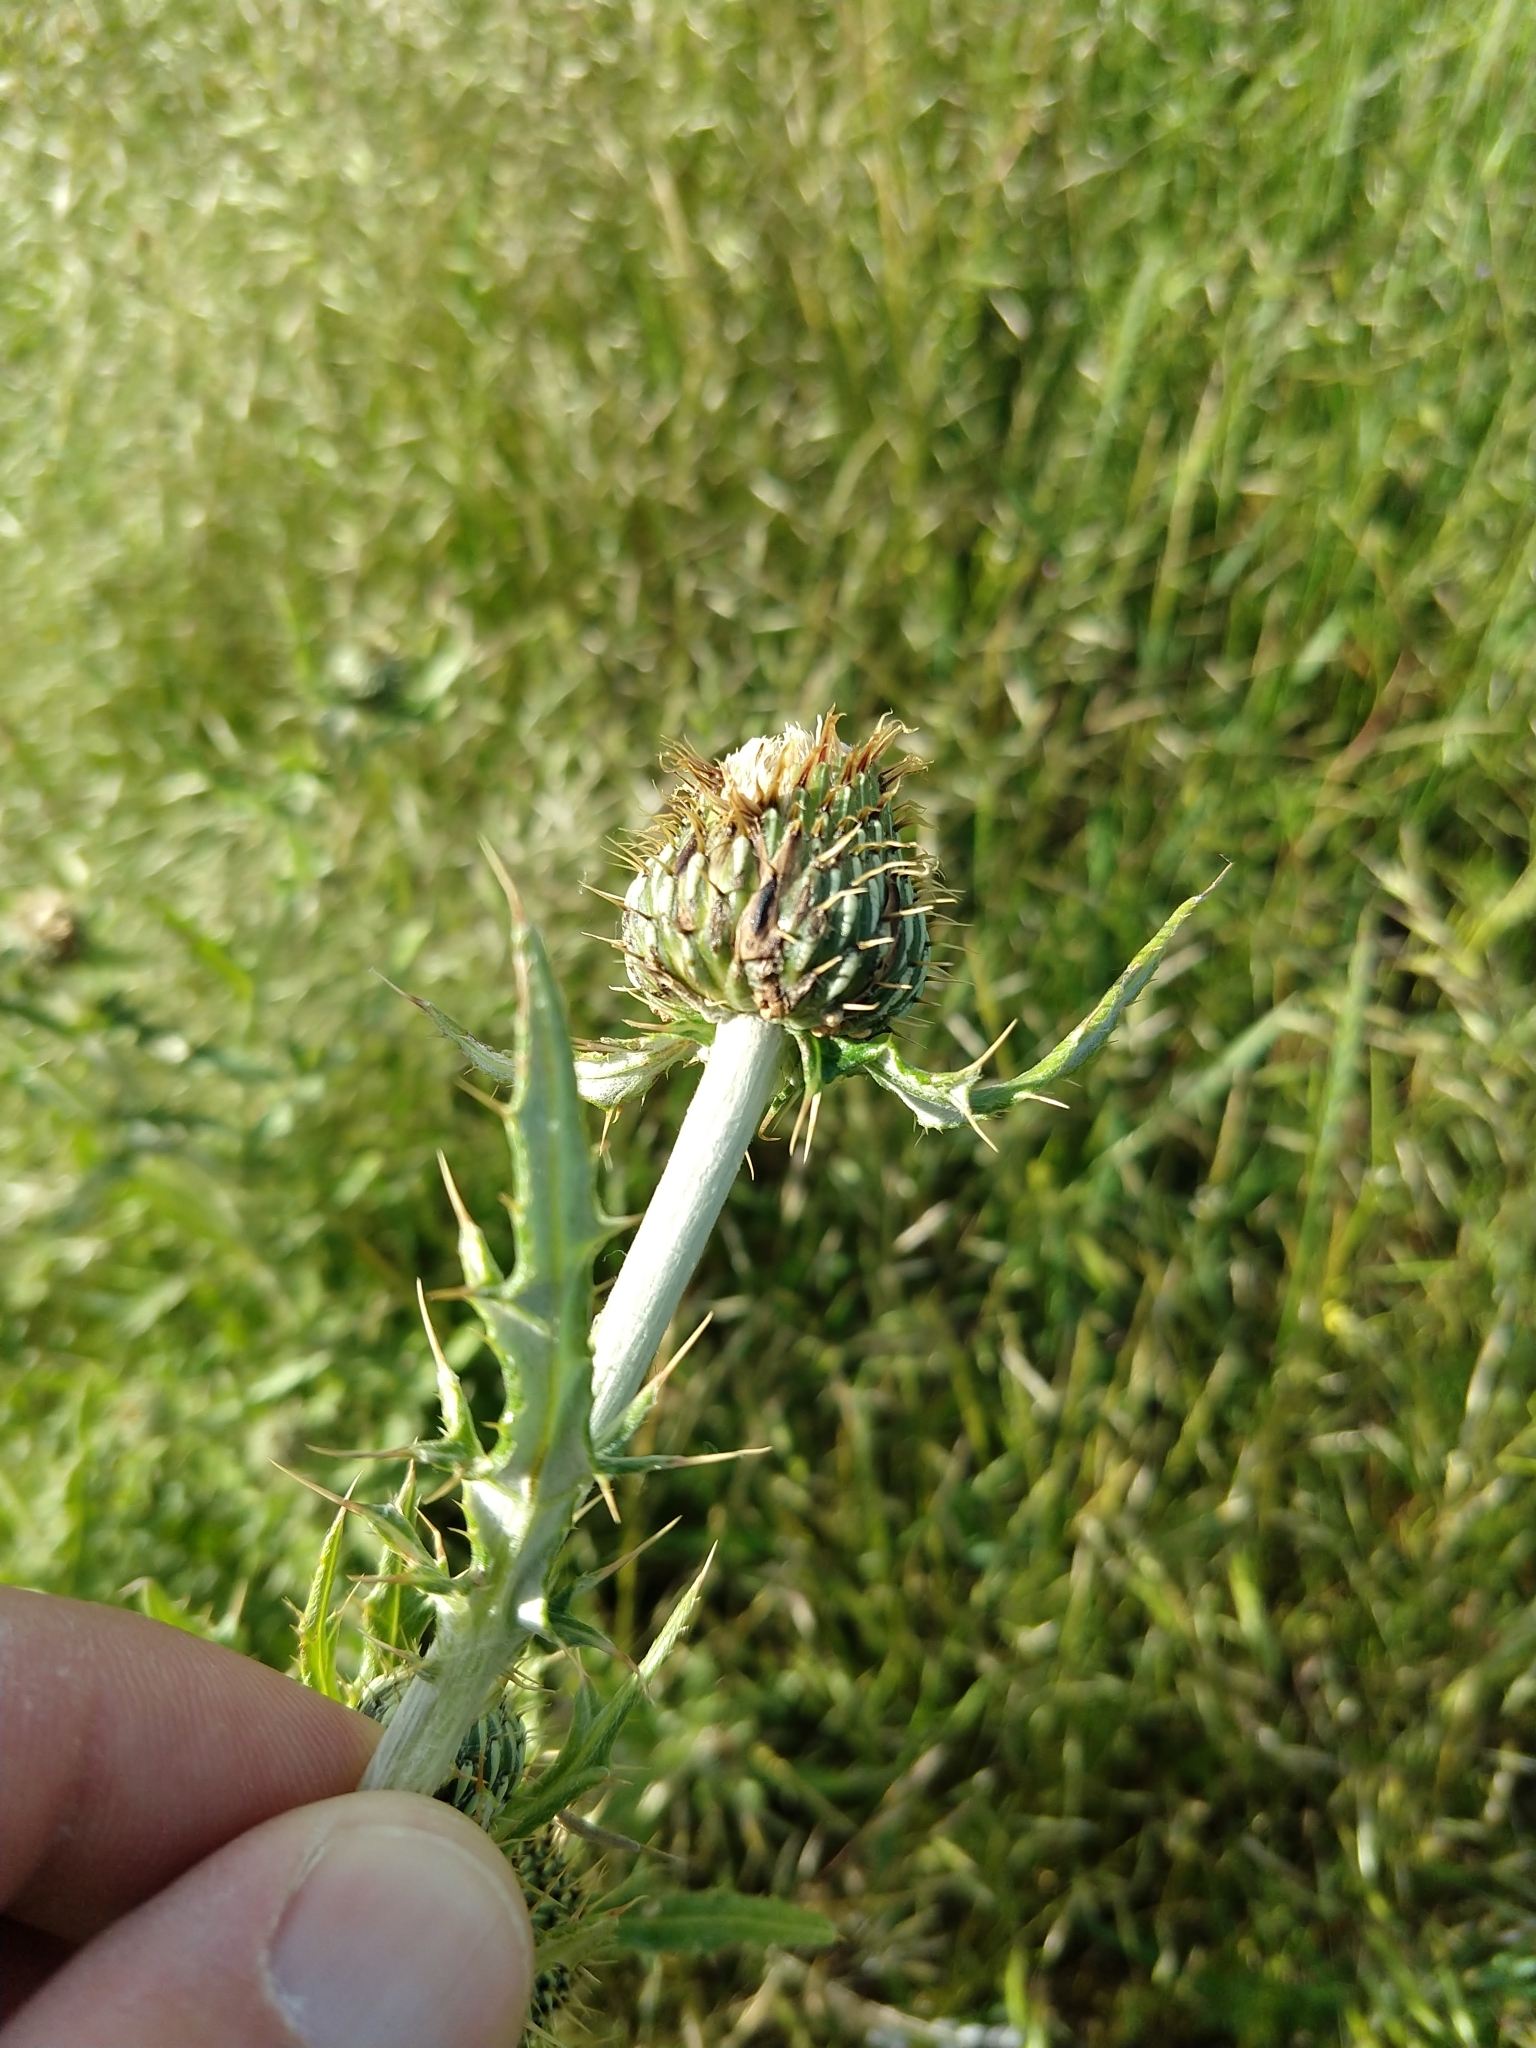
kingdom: Plantae
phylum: Tracheophyta
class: Magnoliopsida
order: Asterales
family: Asteraceae
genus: Cirsium
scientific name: Cirsium undulatum
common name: Pasture thistle
